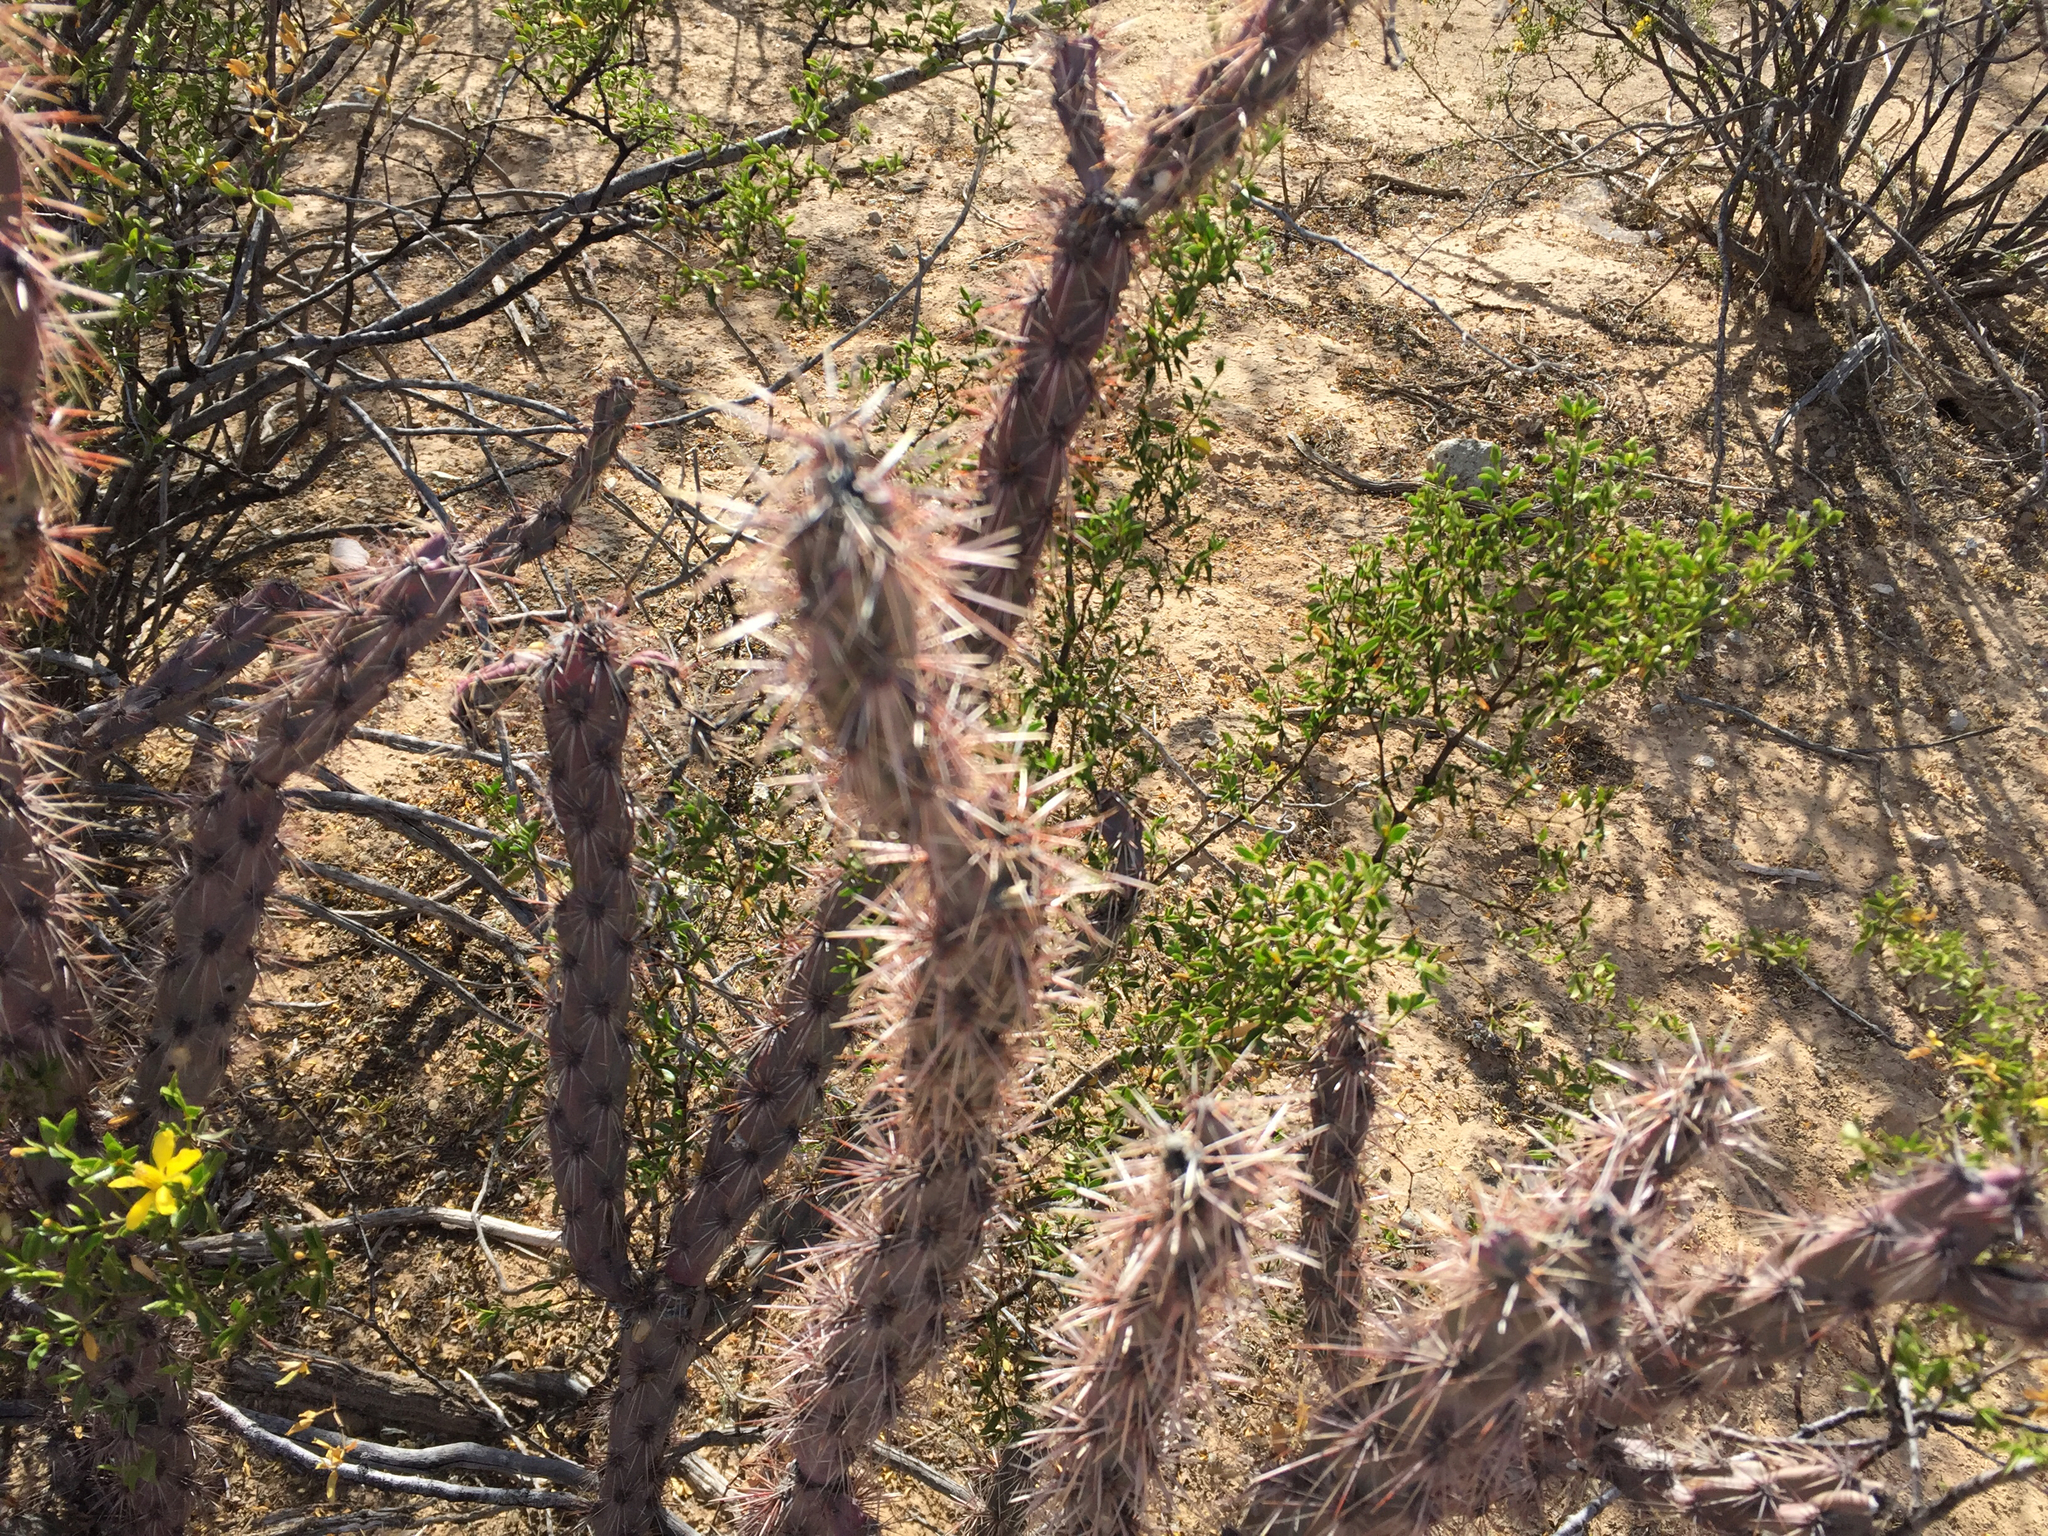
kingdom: Plantae
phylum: Tracheophyta
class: Magnoliopsida
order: Caryophyllales
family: Cactaceae
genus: Cylindropuntia
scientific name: Cylindropuntia acanthocarpa
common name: Buckhorn cholla
